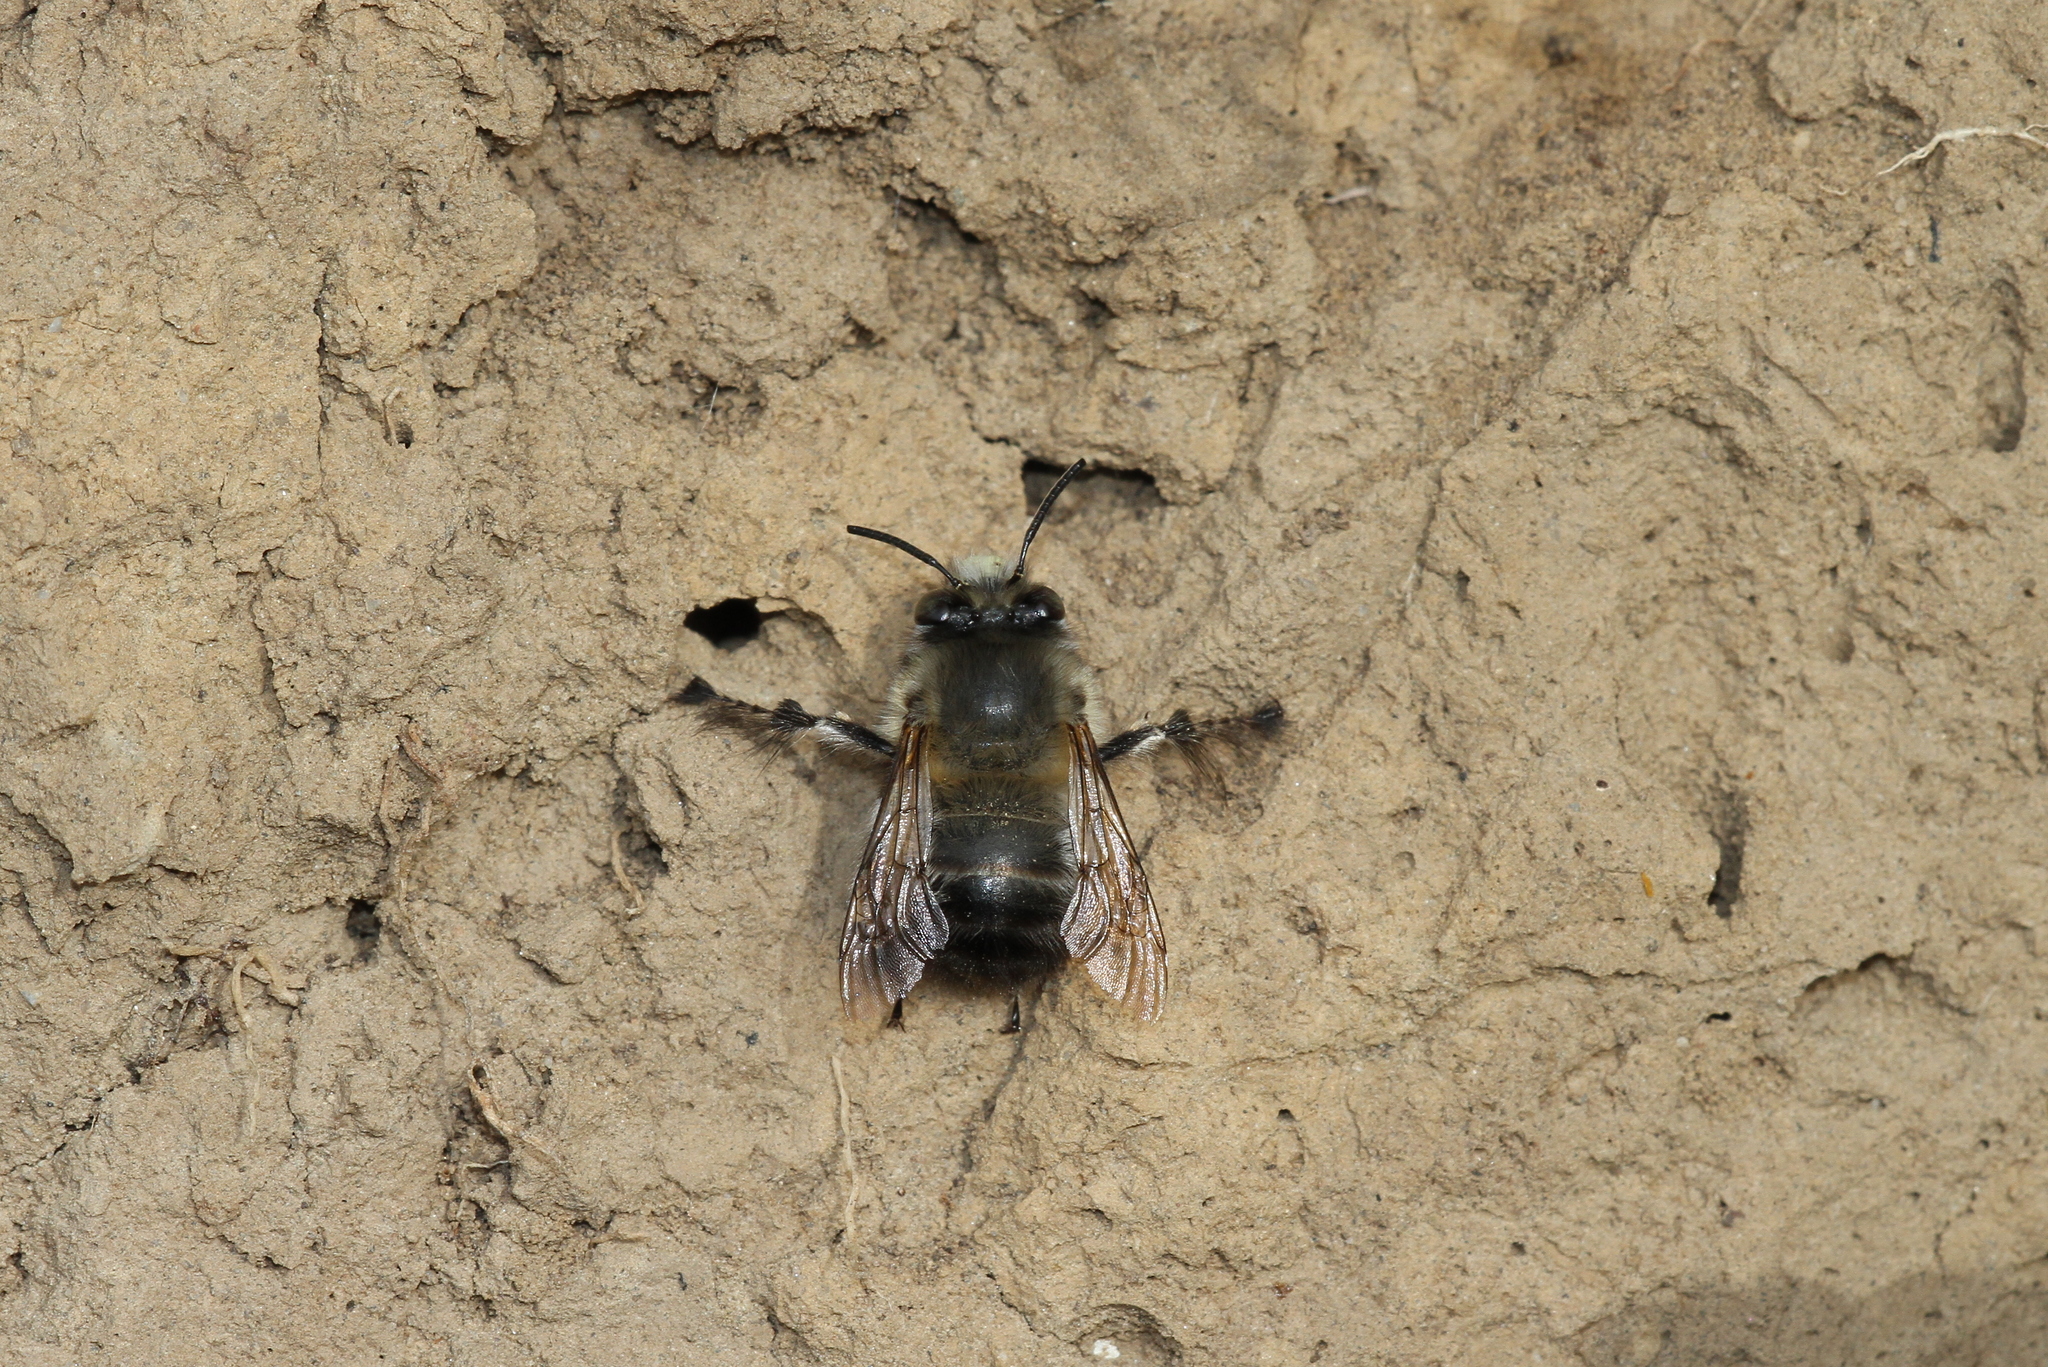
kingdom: Animalia
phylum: Arthropoda
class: Insecta
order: Hymenoptera
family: Apidae
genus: Anthophora
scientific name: Anthophora plumipes
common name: Hairy-footed flower bee
